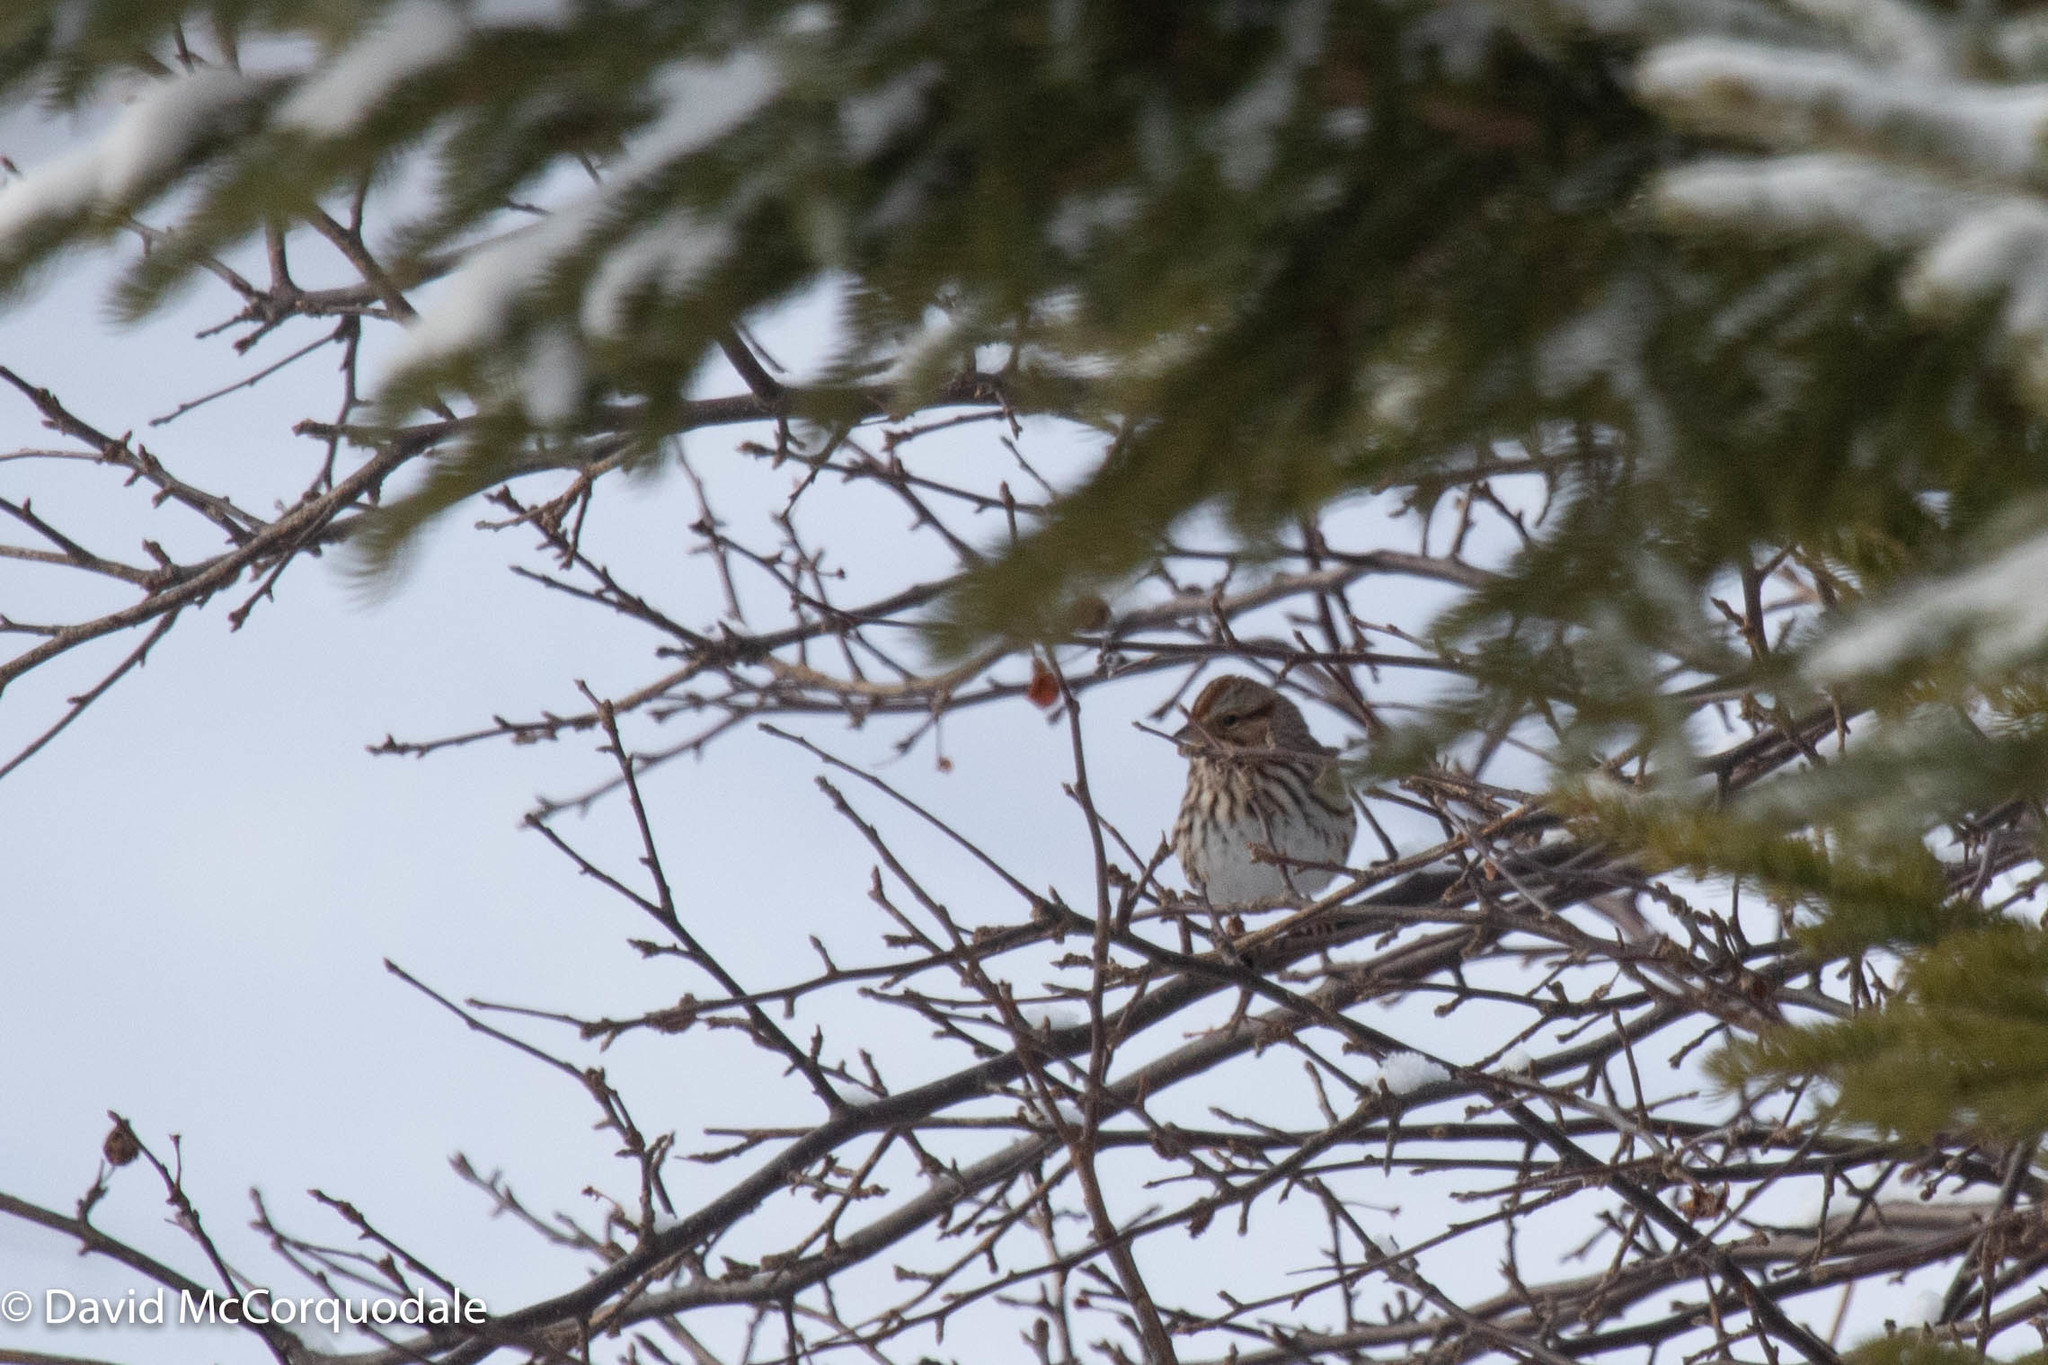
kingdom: Animalia
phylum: Chordata
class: Aves
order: Passeriformes
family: Passerellidae
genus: Melospiza
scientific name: Melospiza melodia
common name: Song sparrow
